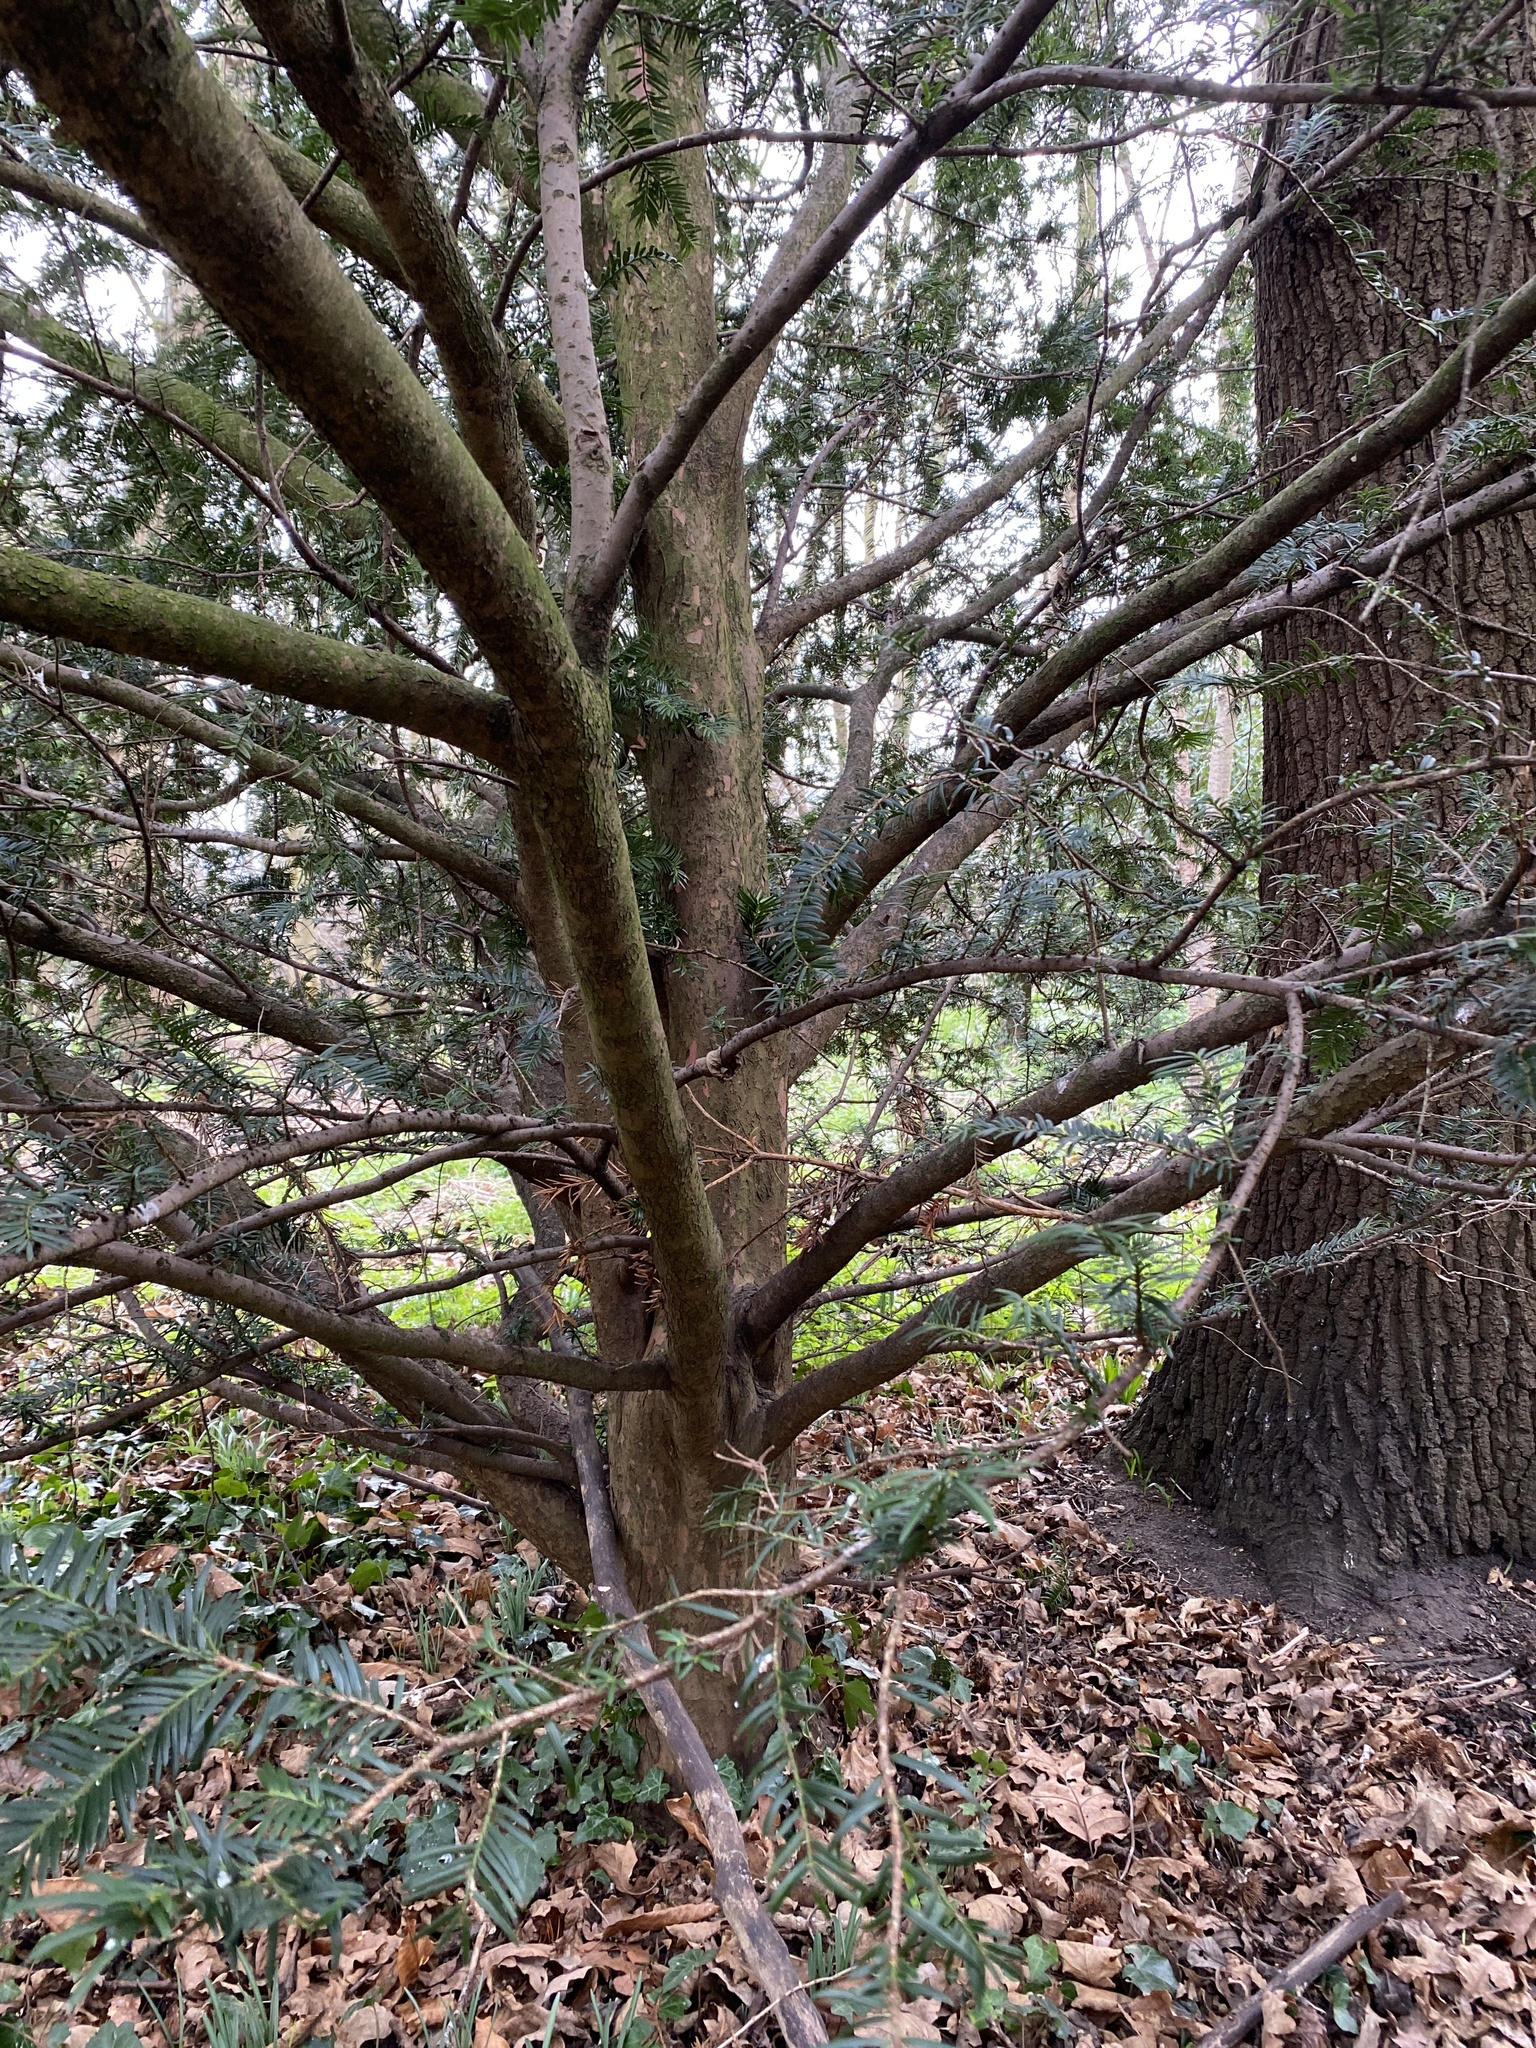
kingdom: Plantae
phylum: Tracheophyta
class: Pinopsida
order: Pinales
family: Taxaceae
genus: Taxus
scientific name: Taxus baccata
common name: Yew
